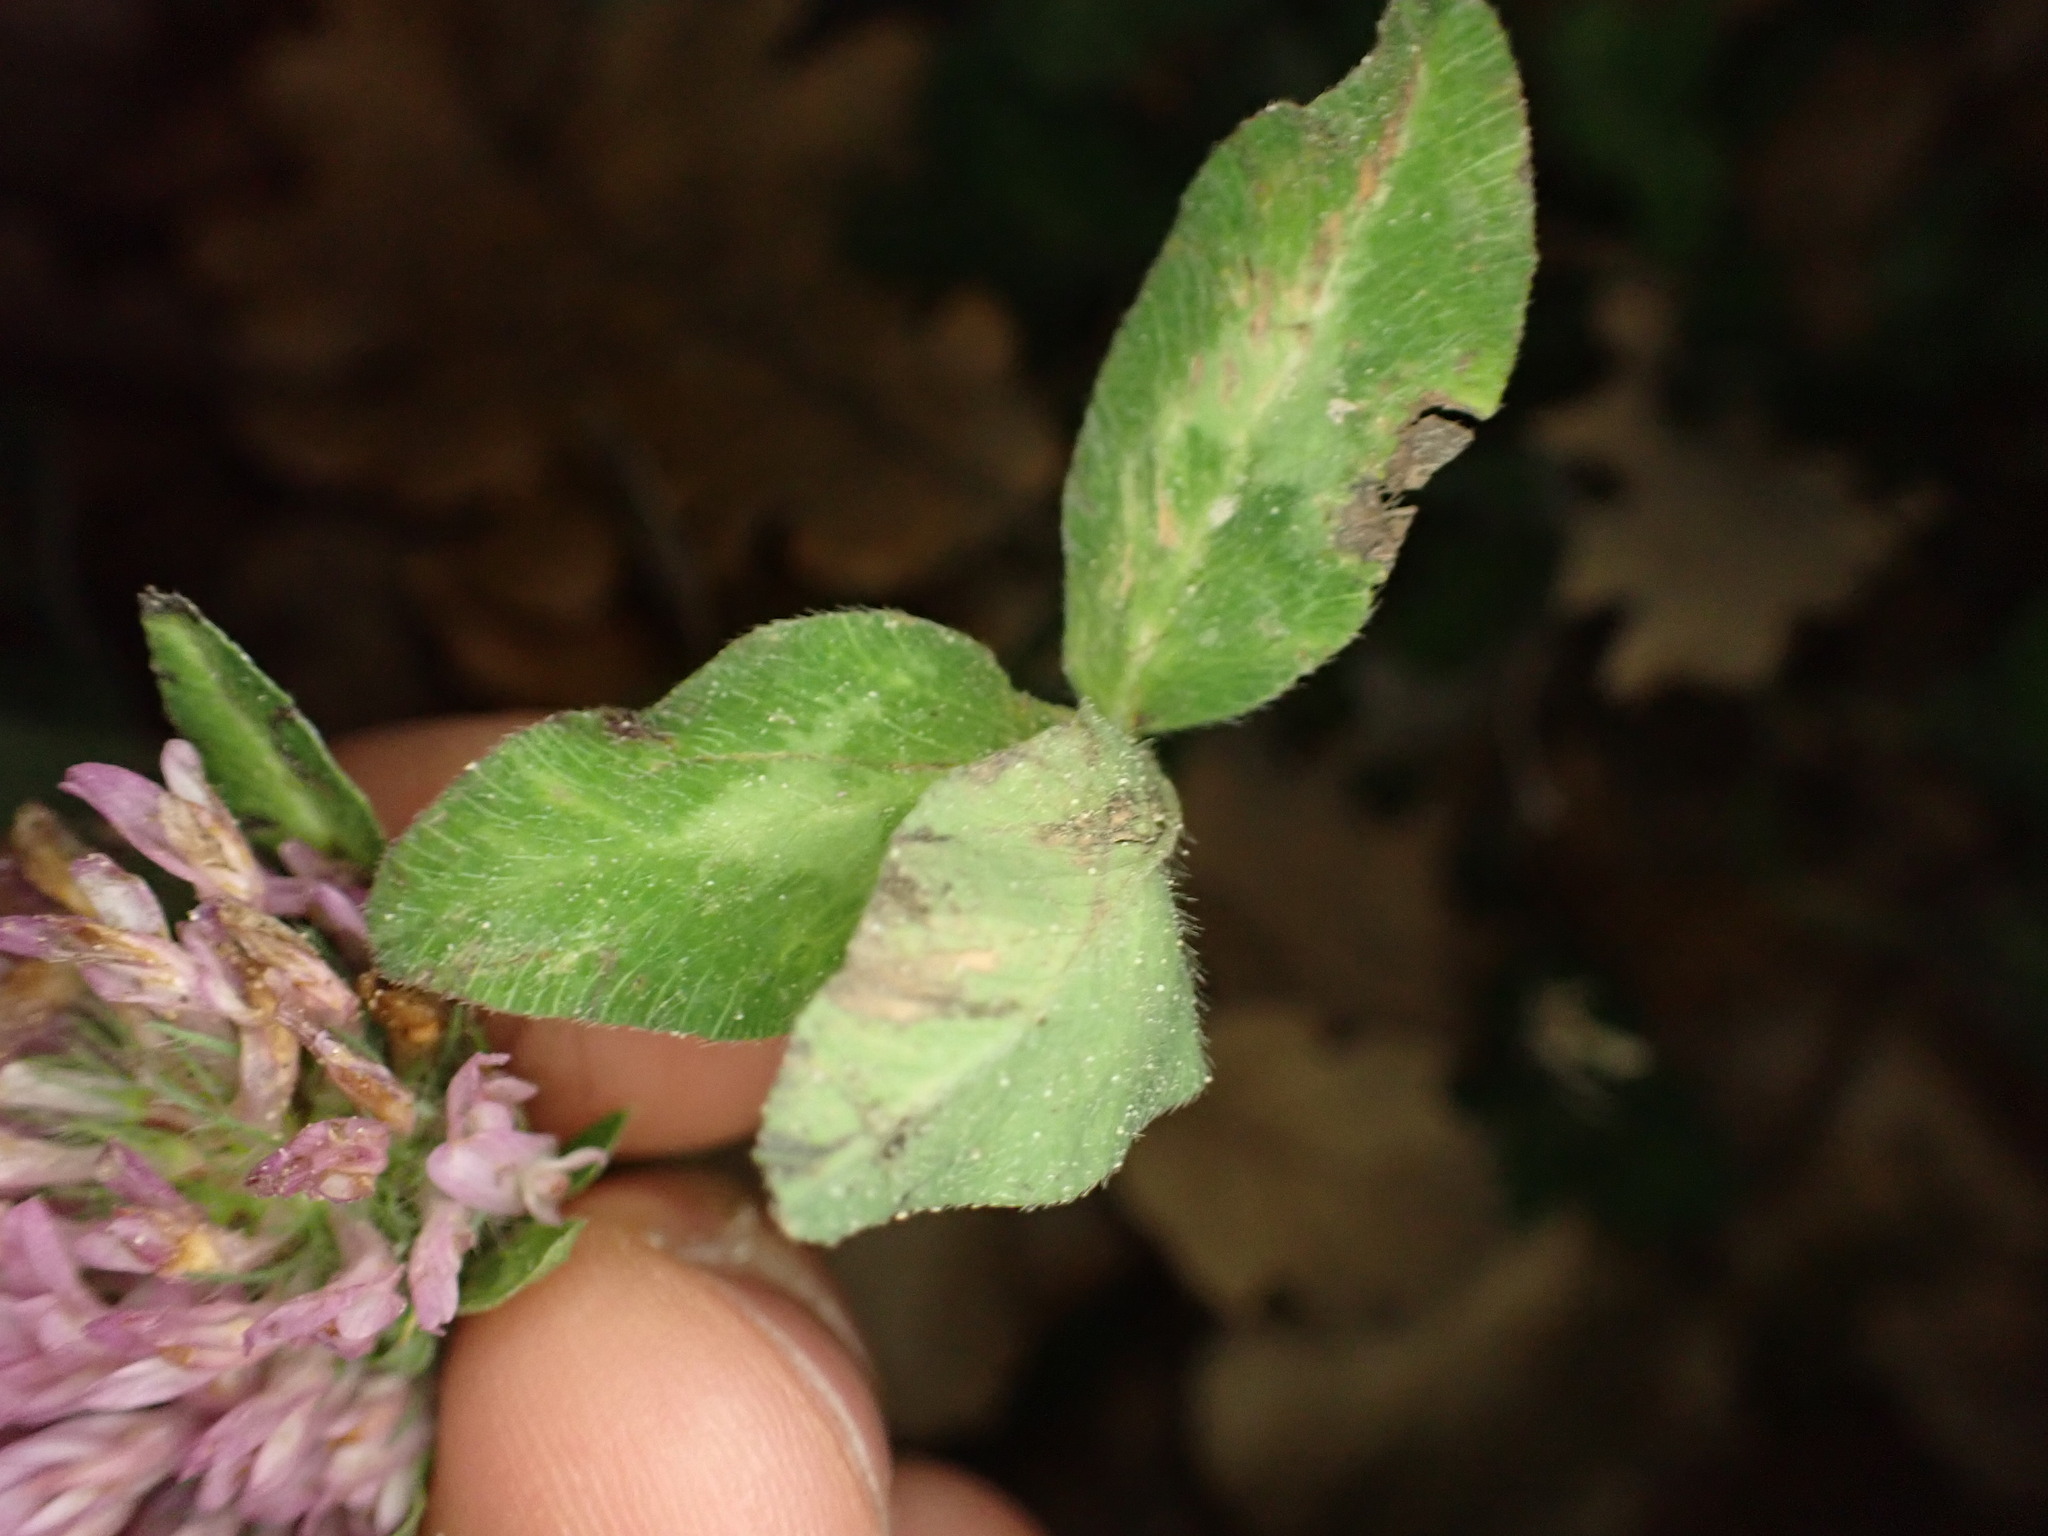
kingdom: Plantae
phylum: Tracheophyta
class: Magnoliopsida
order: Fabales
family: Fabaceae
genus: Trifolium
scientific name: Trifolium pratense
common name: Red clover
